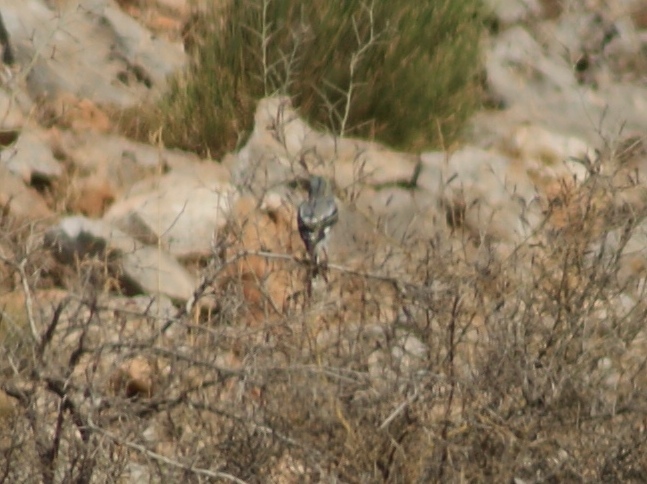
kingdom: Animalia
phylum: Chordata
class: Aves
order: Passeriformes
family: Laniidae
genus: Lanius
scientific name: Lanius excubitor
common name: Great grey shrike
